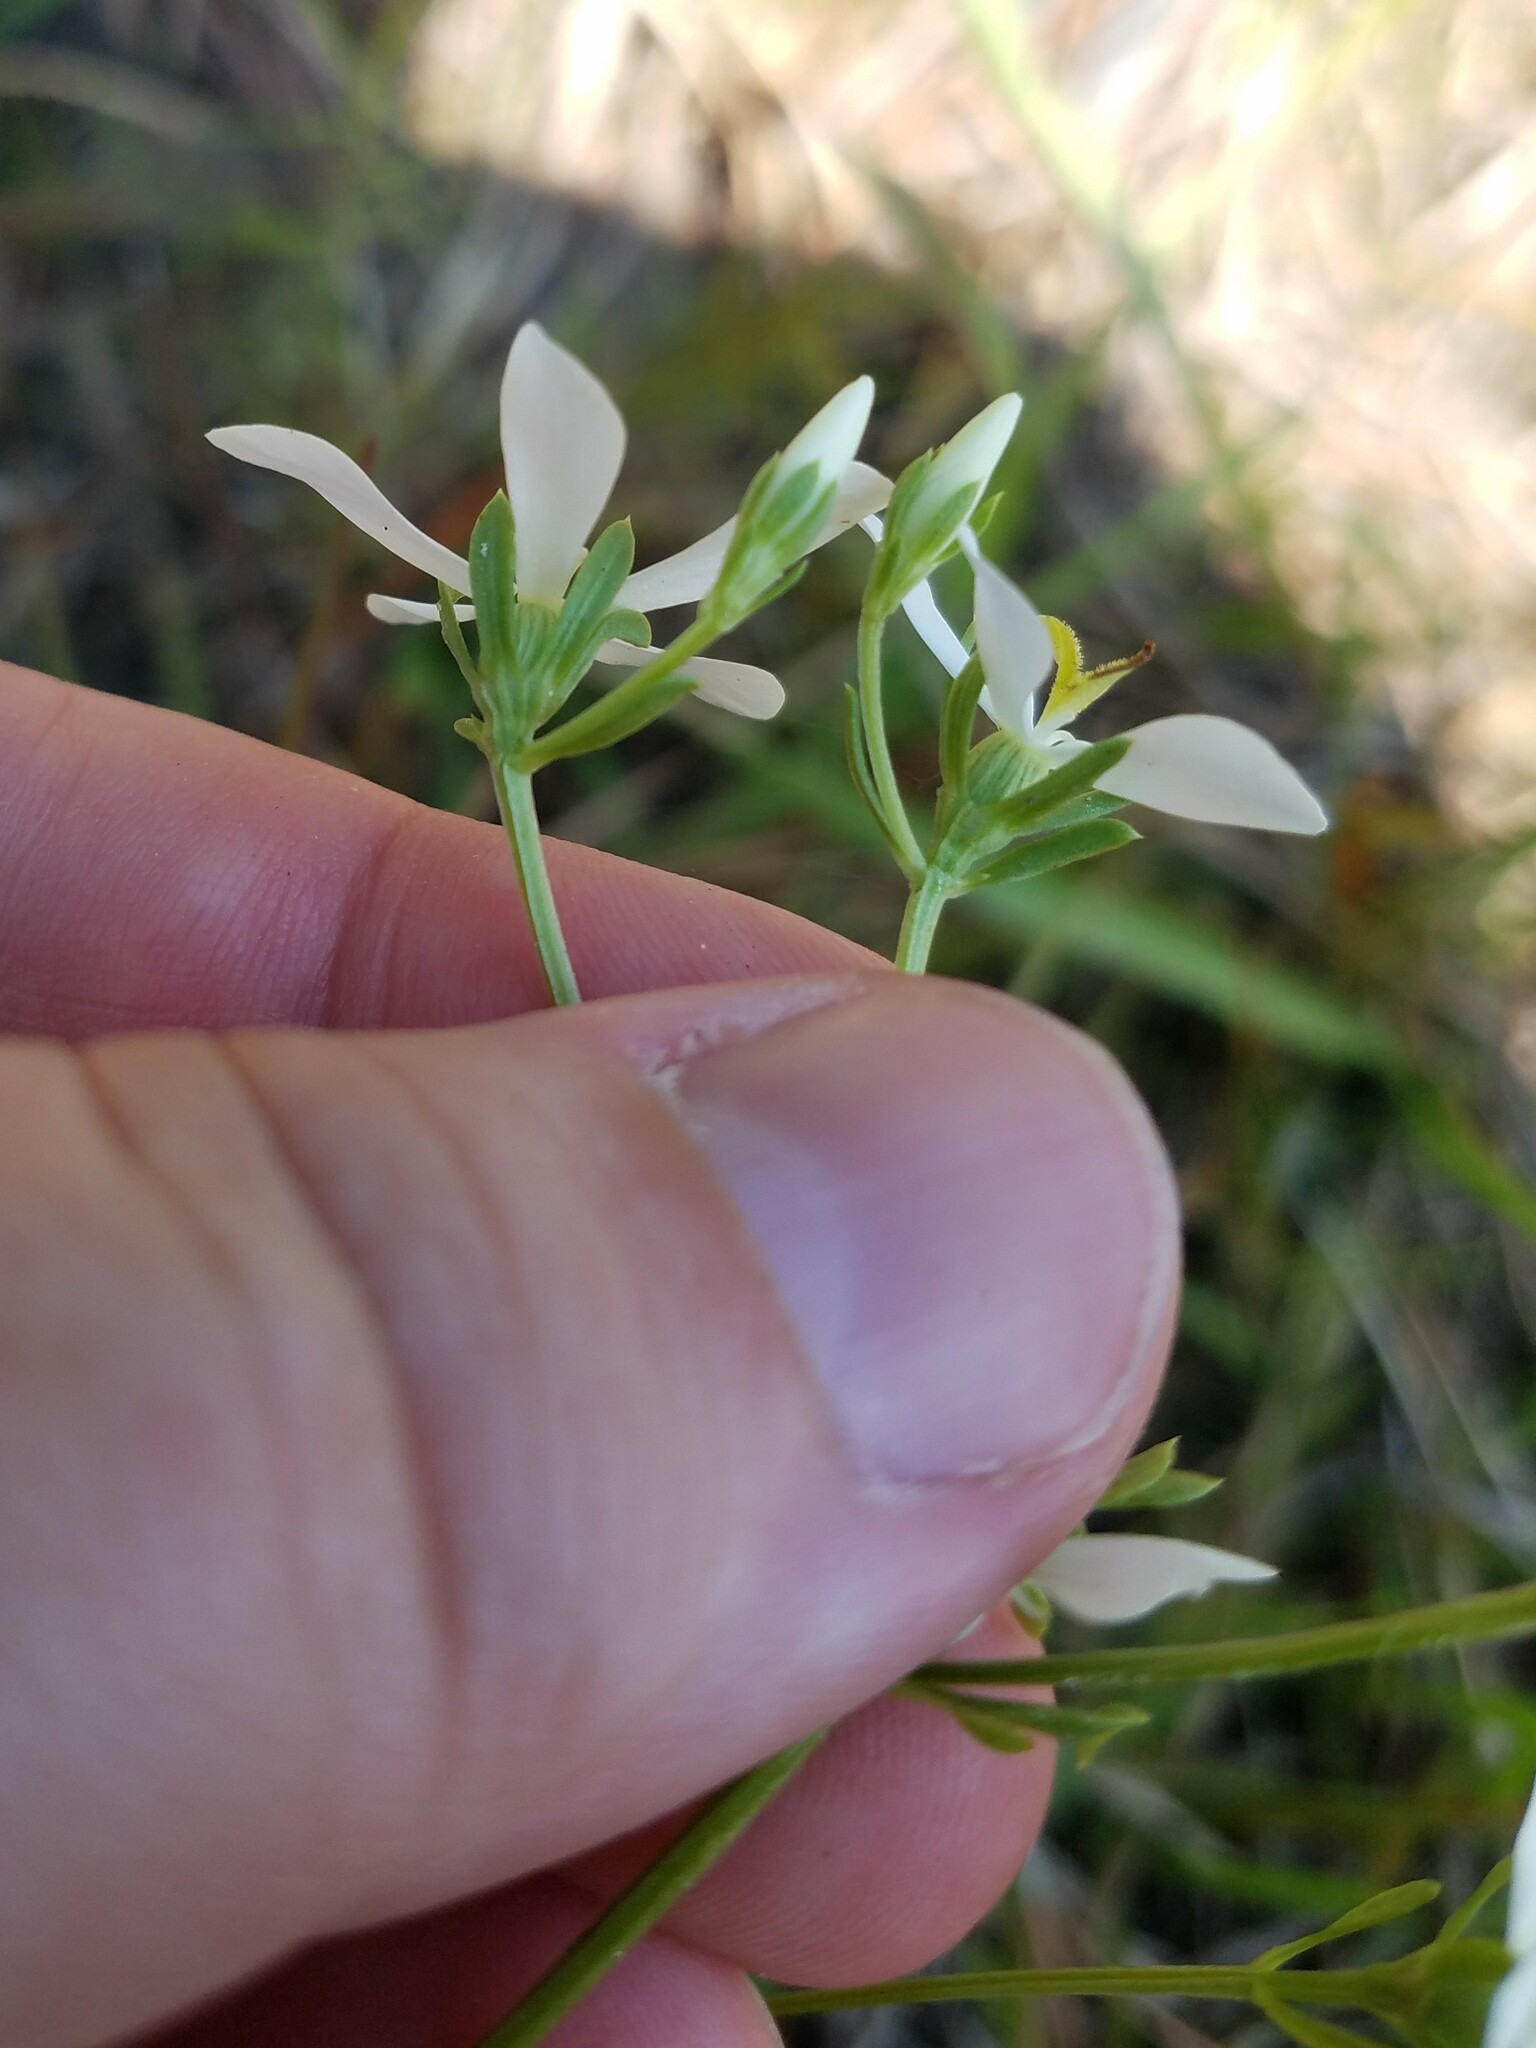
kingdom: Plantae
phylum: Tracheophyta
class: Magnoliopsida
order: Gentianales
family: Gentianaceae
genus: Sabatia
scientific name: Sabatia quadrangula
